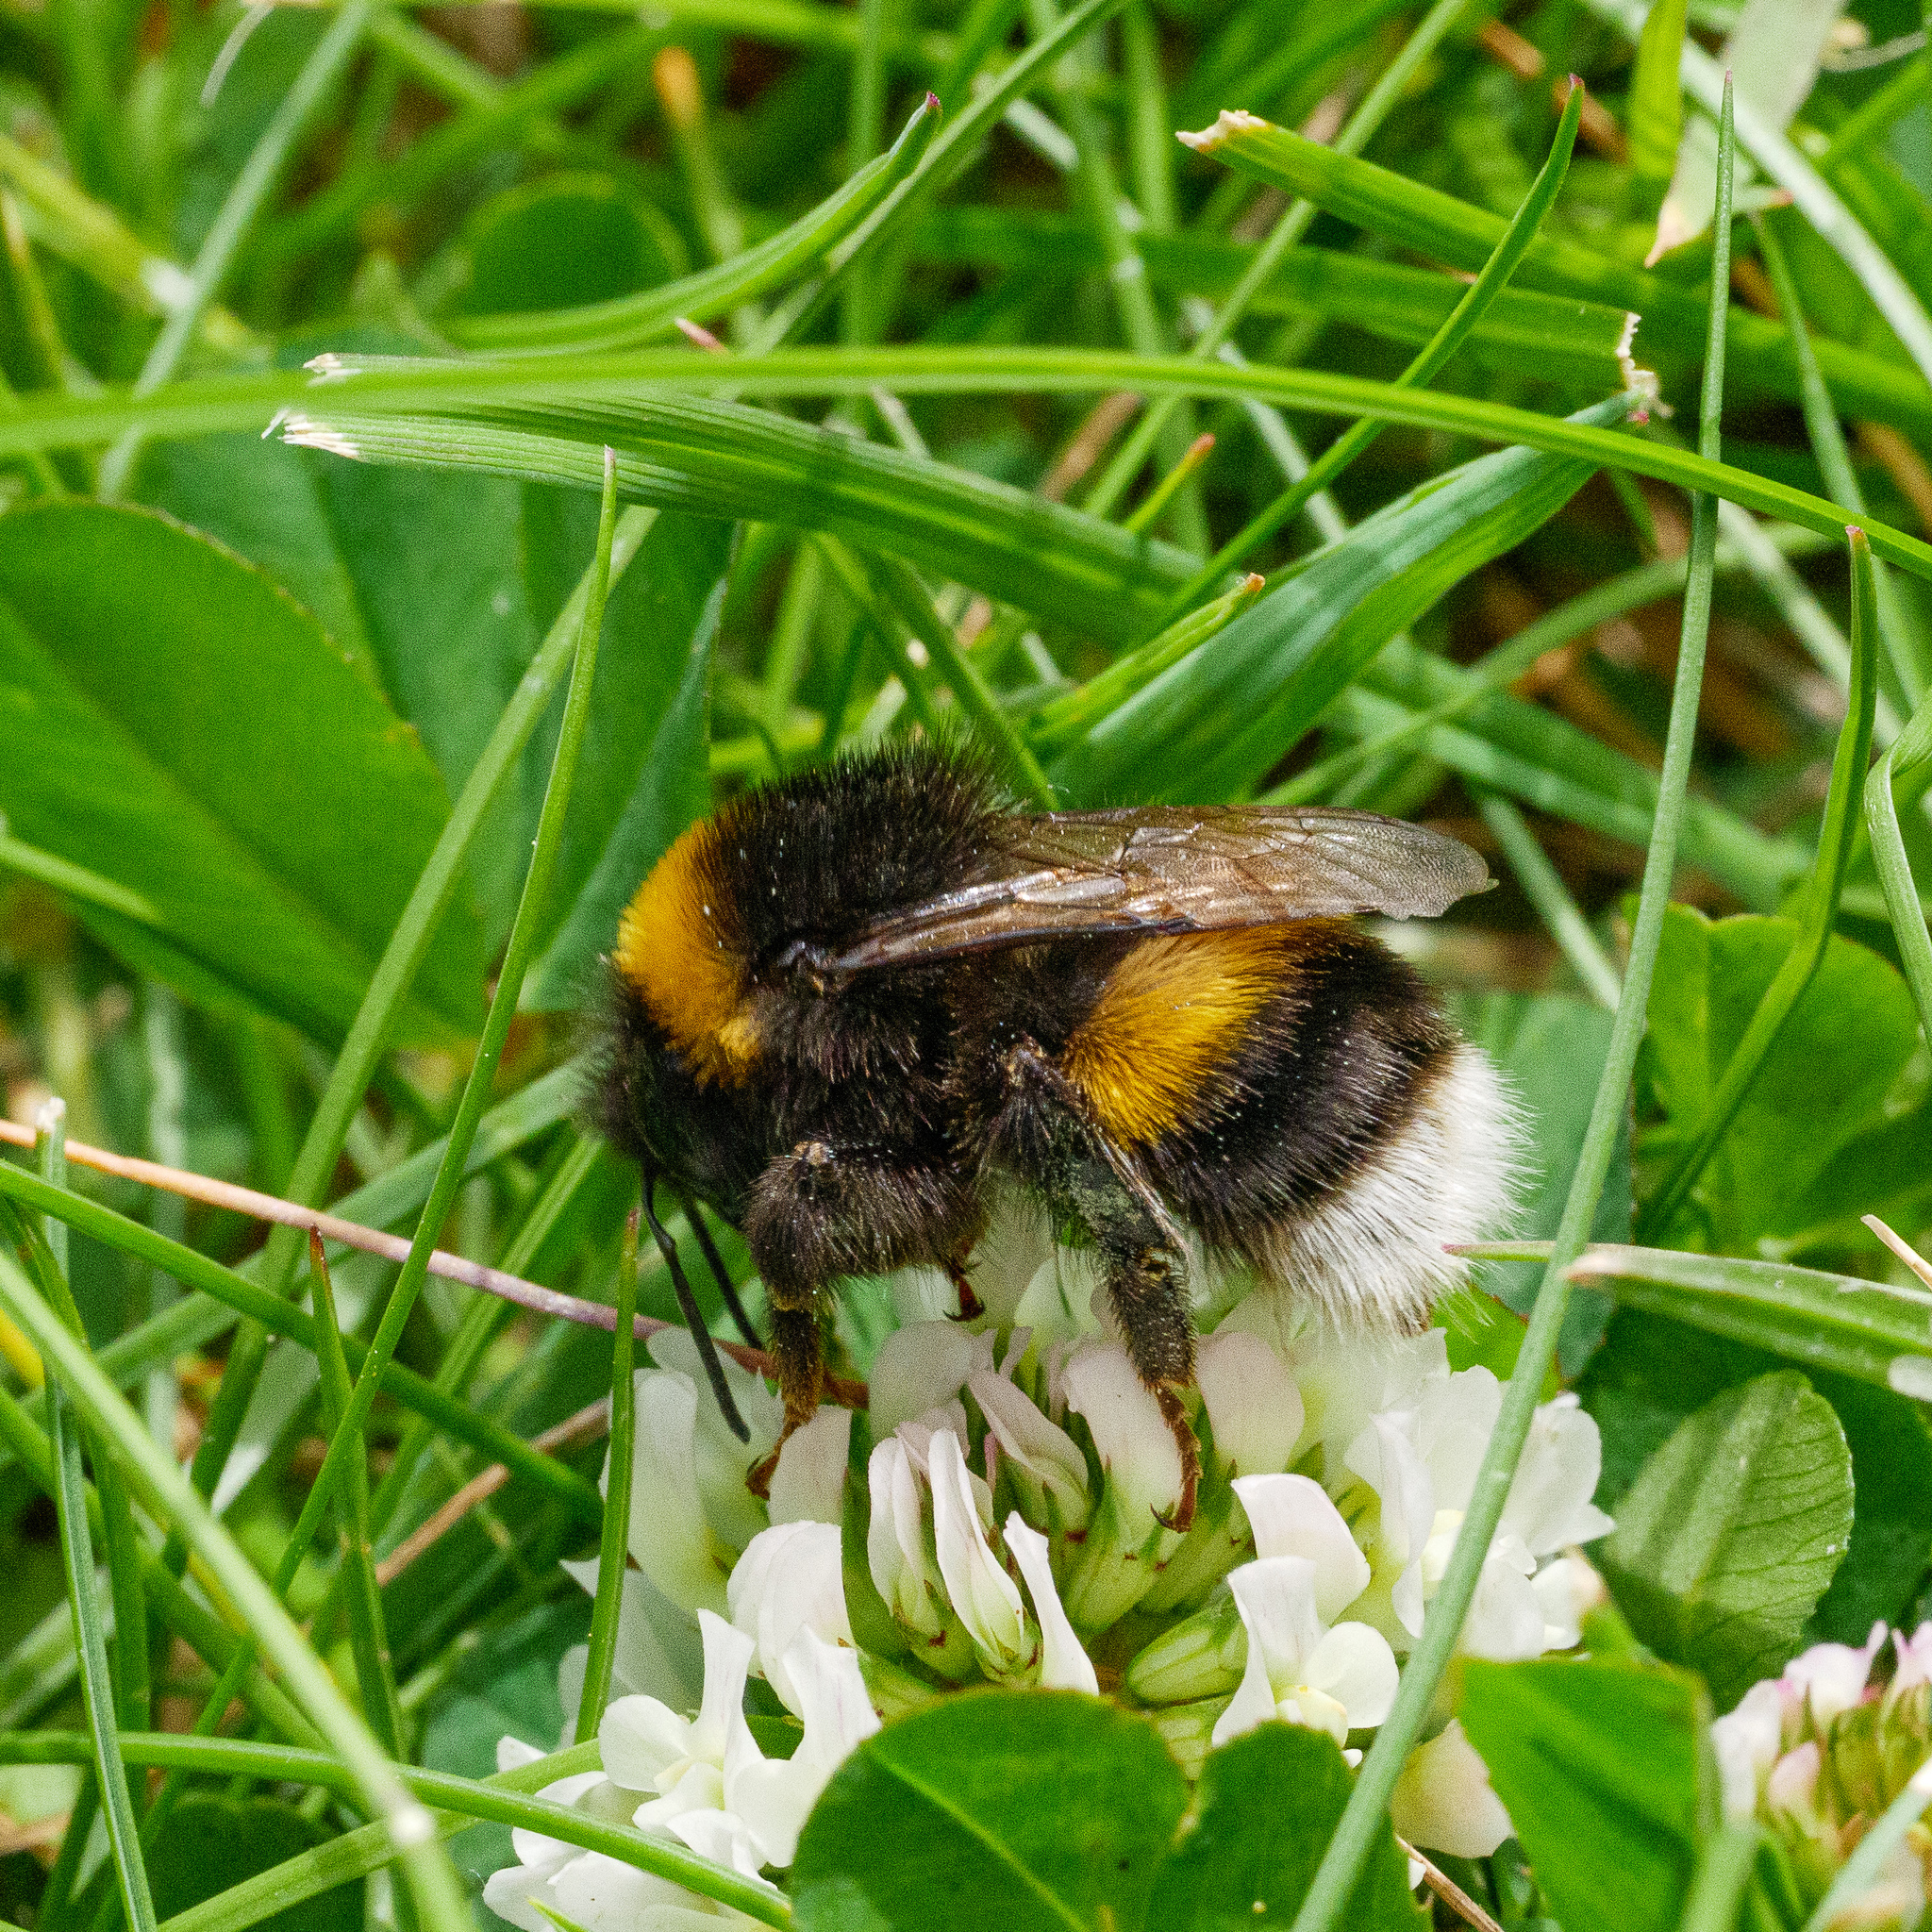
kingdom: Animalia
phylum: Arthropoda
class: Insecta
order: Hymenoptera
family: Apidae
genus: Bombus
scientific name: Bombus terrestris
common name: Buff-tailed bumblebee
